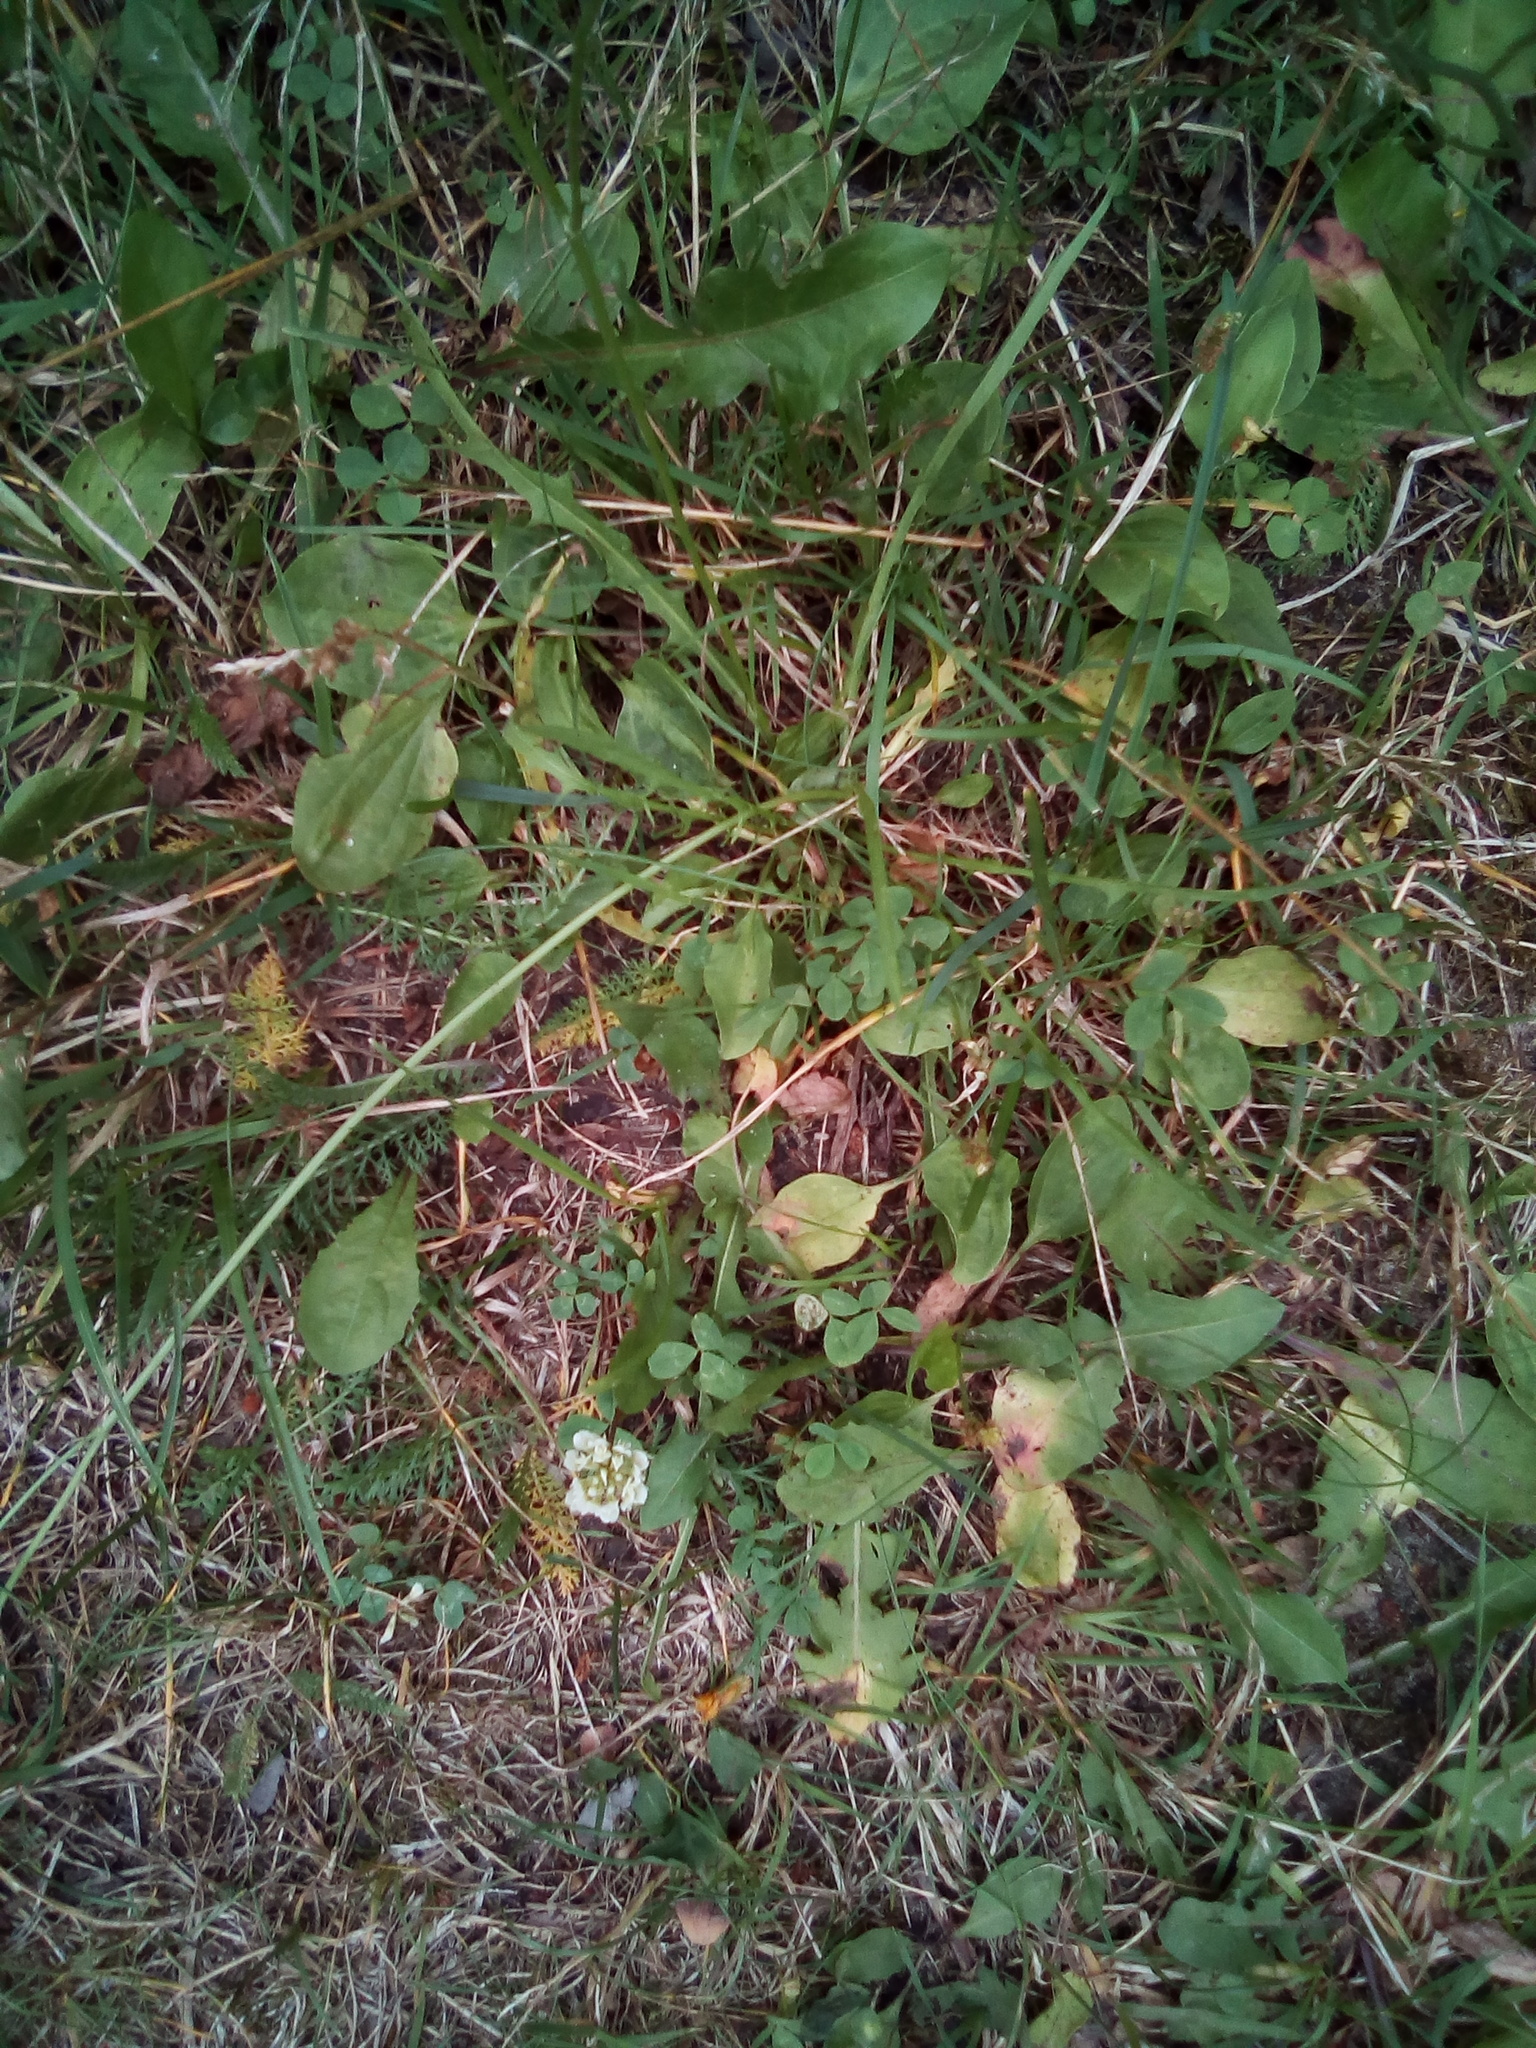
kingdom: Plantae
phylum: Tracheophyta
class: Magnoliopsida
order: Fabales
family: Fabaceae
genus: Trifolium
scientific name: Trifolium repens
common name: White clover
